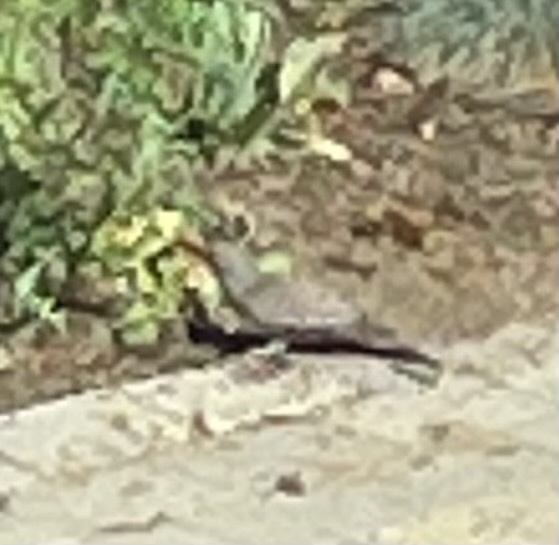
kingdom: Animalia
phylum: Chordata
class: Aves
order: Piciformes
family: Picidae
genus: Colaptes
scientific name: Colaptes auratus
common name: Northern flicker
